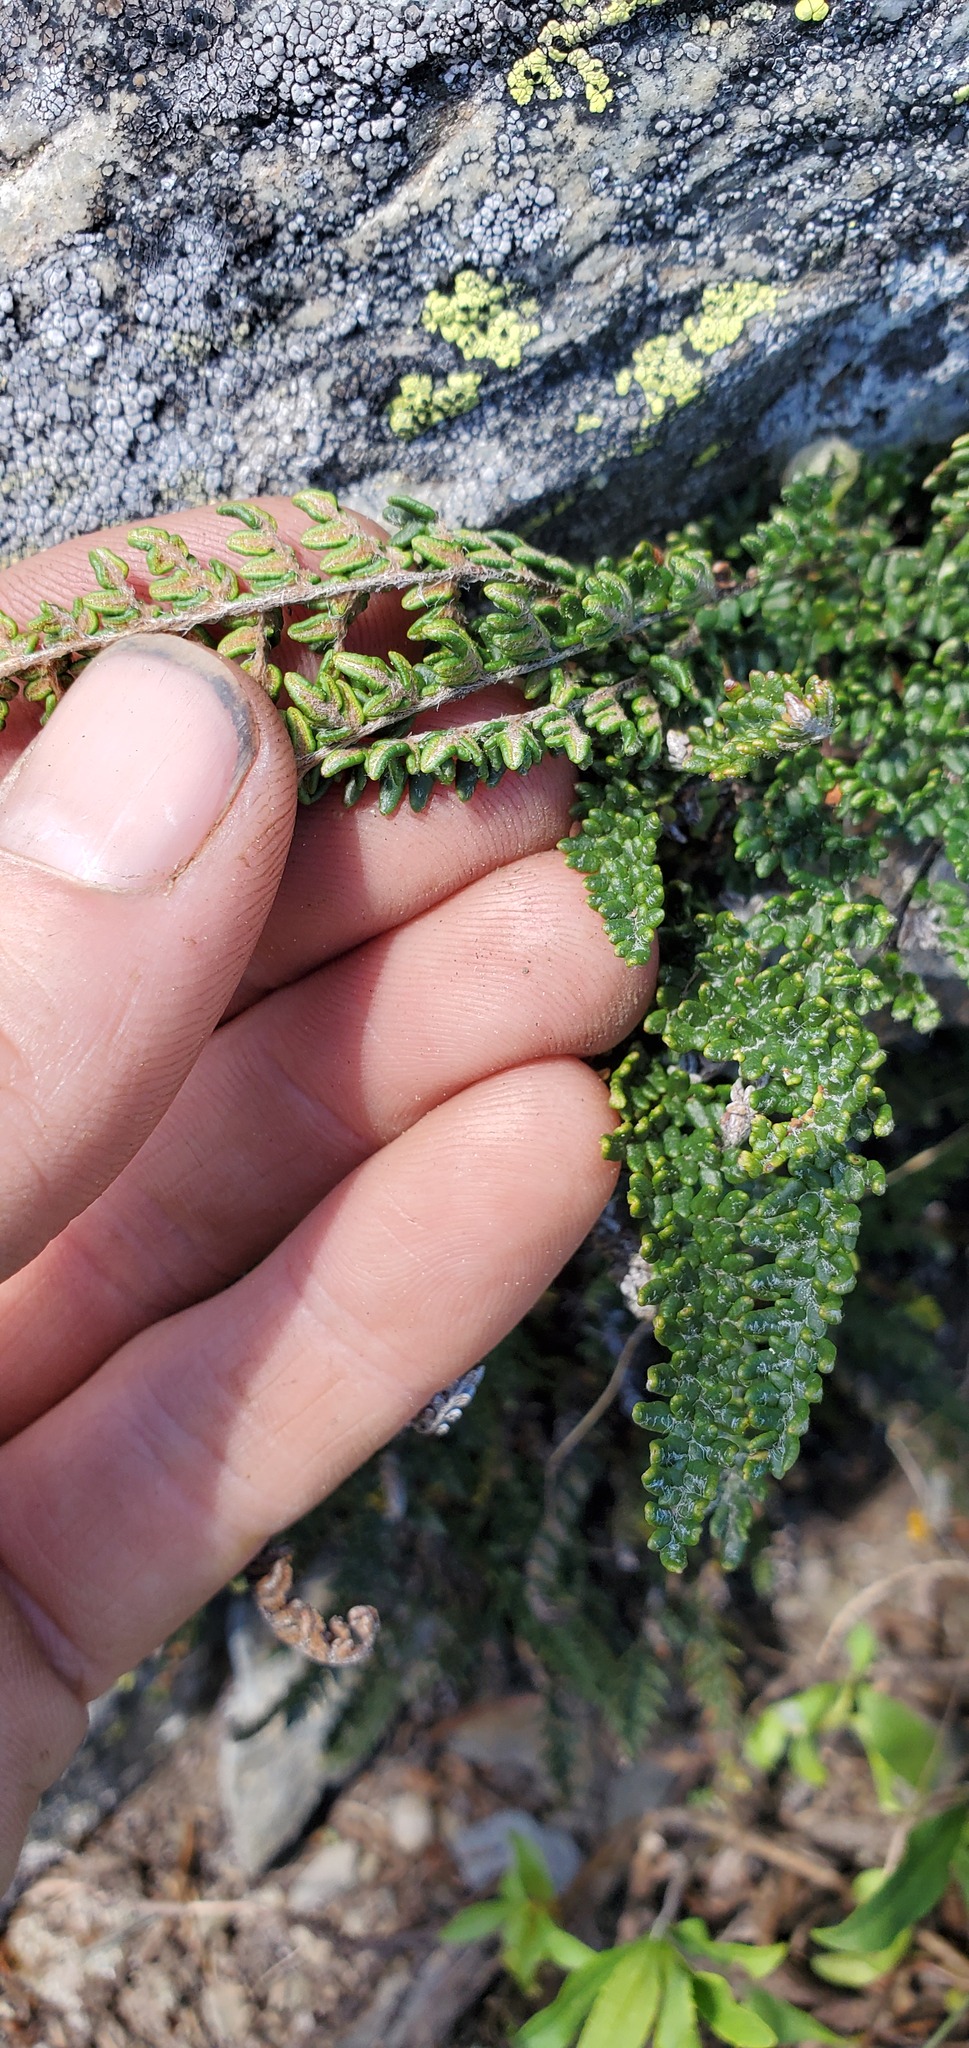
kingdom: Plantae
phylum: Tracheophyta
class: Polypodiopsida
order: Polypodiales
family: Pteridaceae
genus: Myriopteris
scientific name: Myriopteris gracillima
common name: Lace fern
